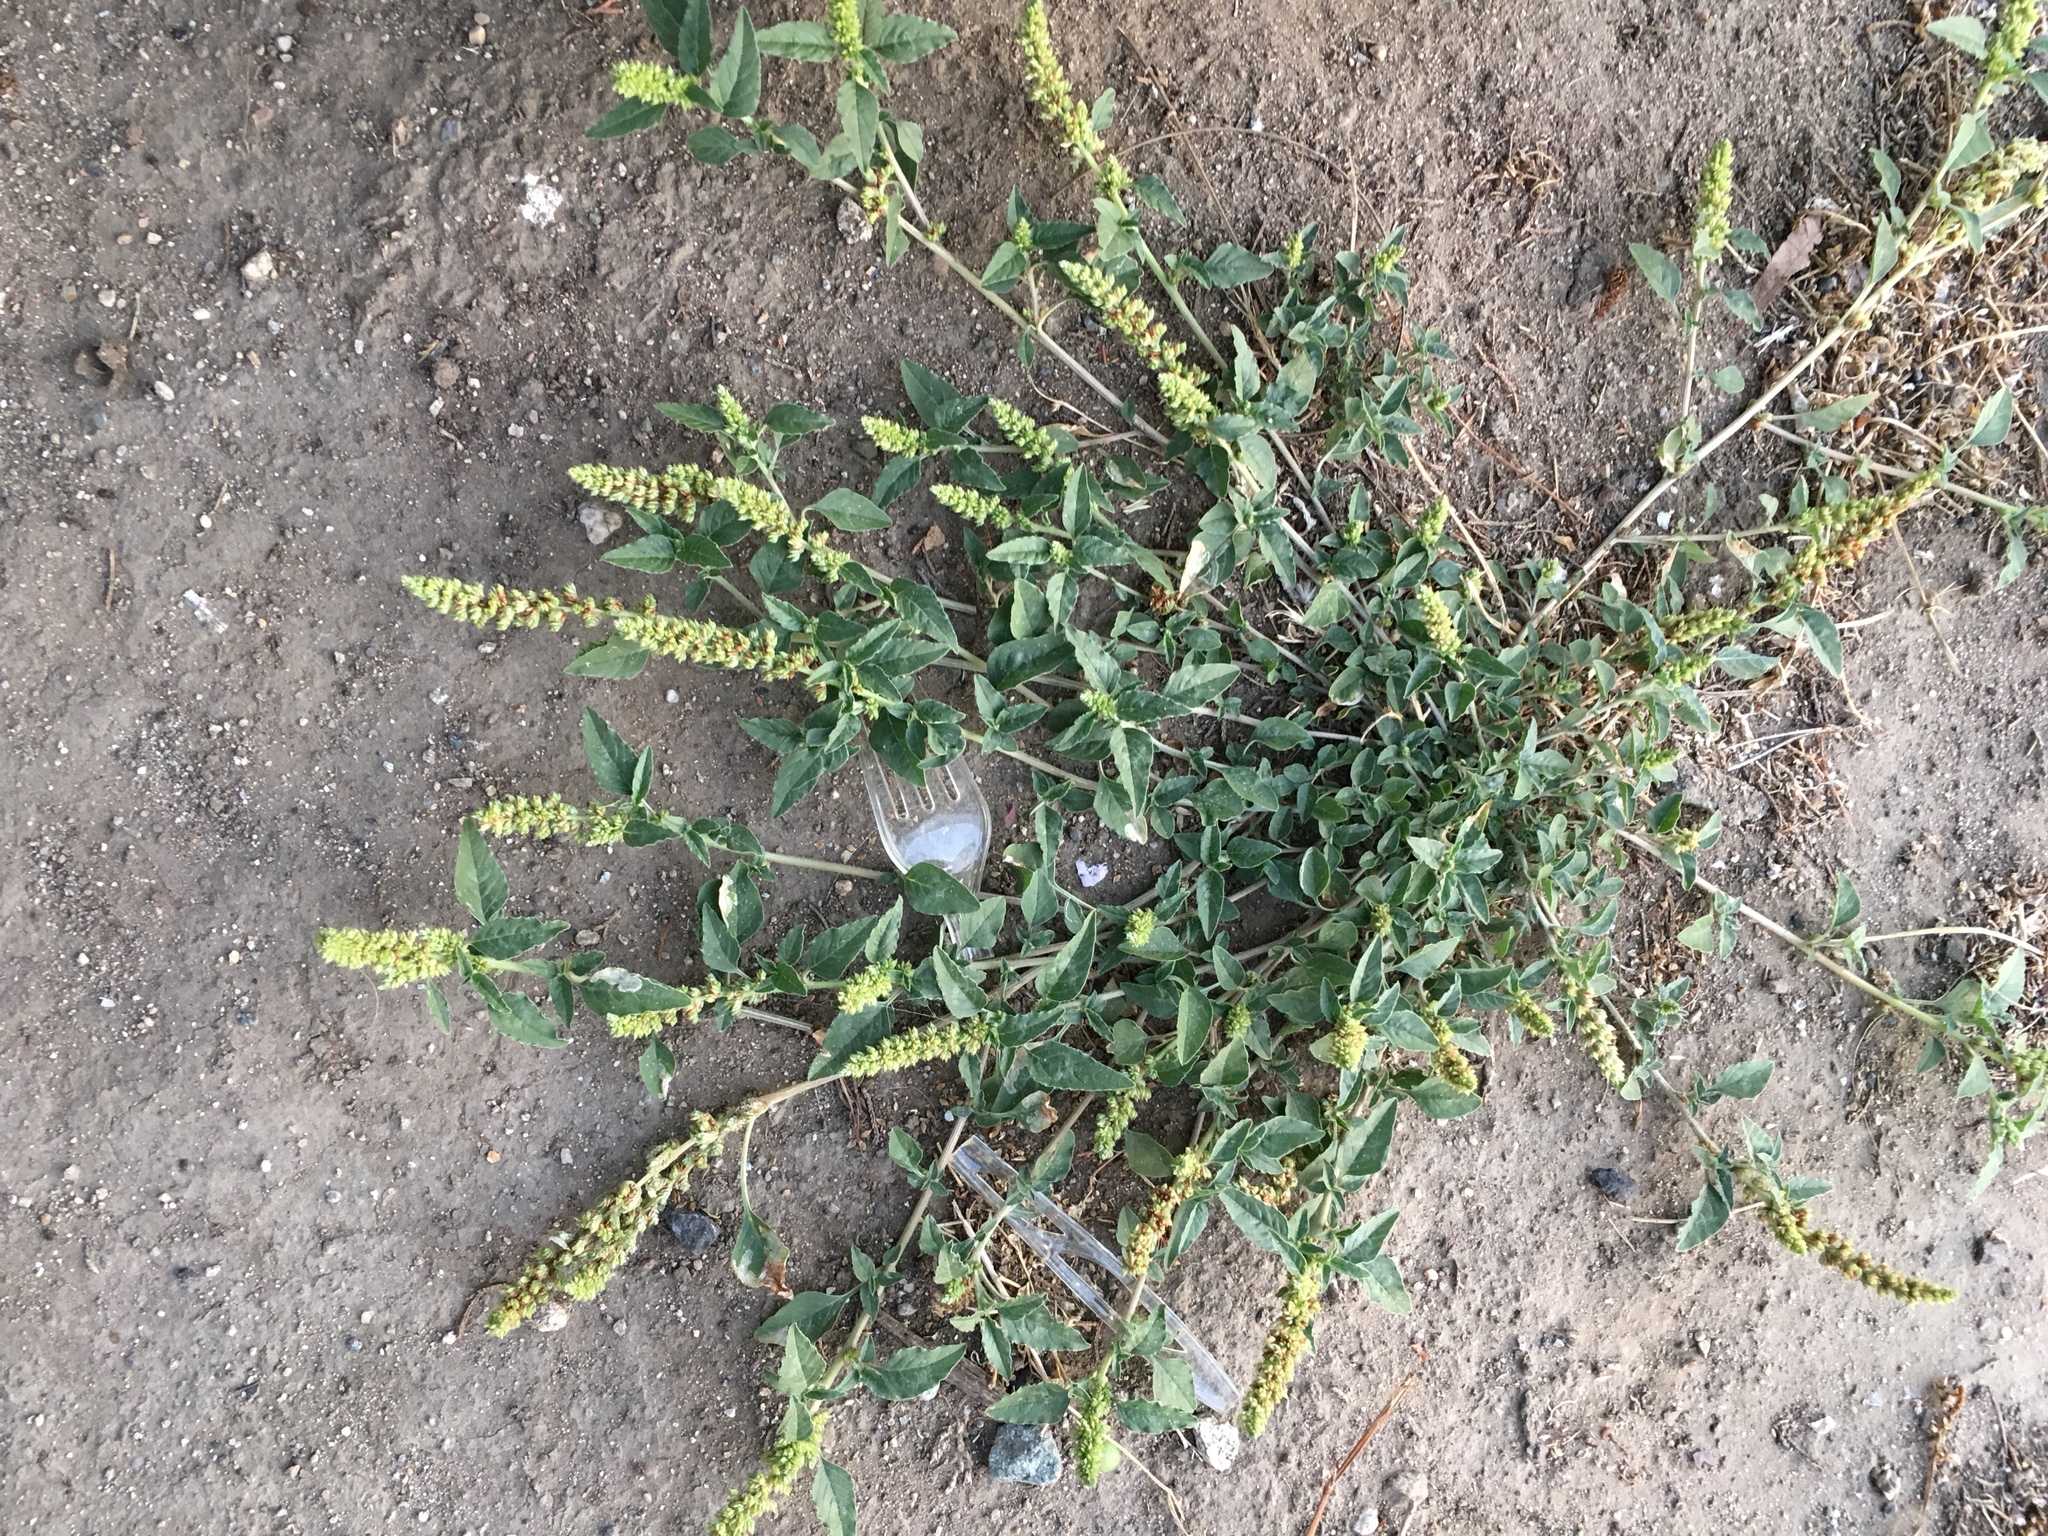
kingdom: Plantae
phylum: Tracheophyta
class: Magnoliopsida
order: Caryophyllales
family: Amaranthaceae
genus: Amaranthus
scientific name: Amaranthus deflexus
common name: Perennial pigweed
